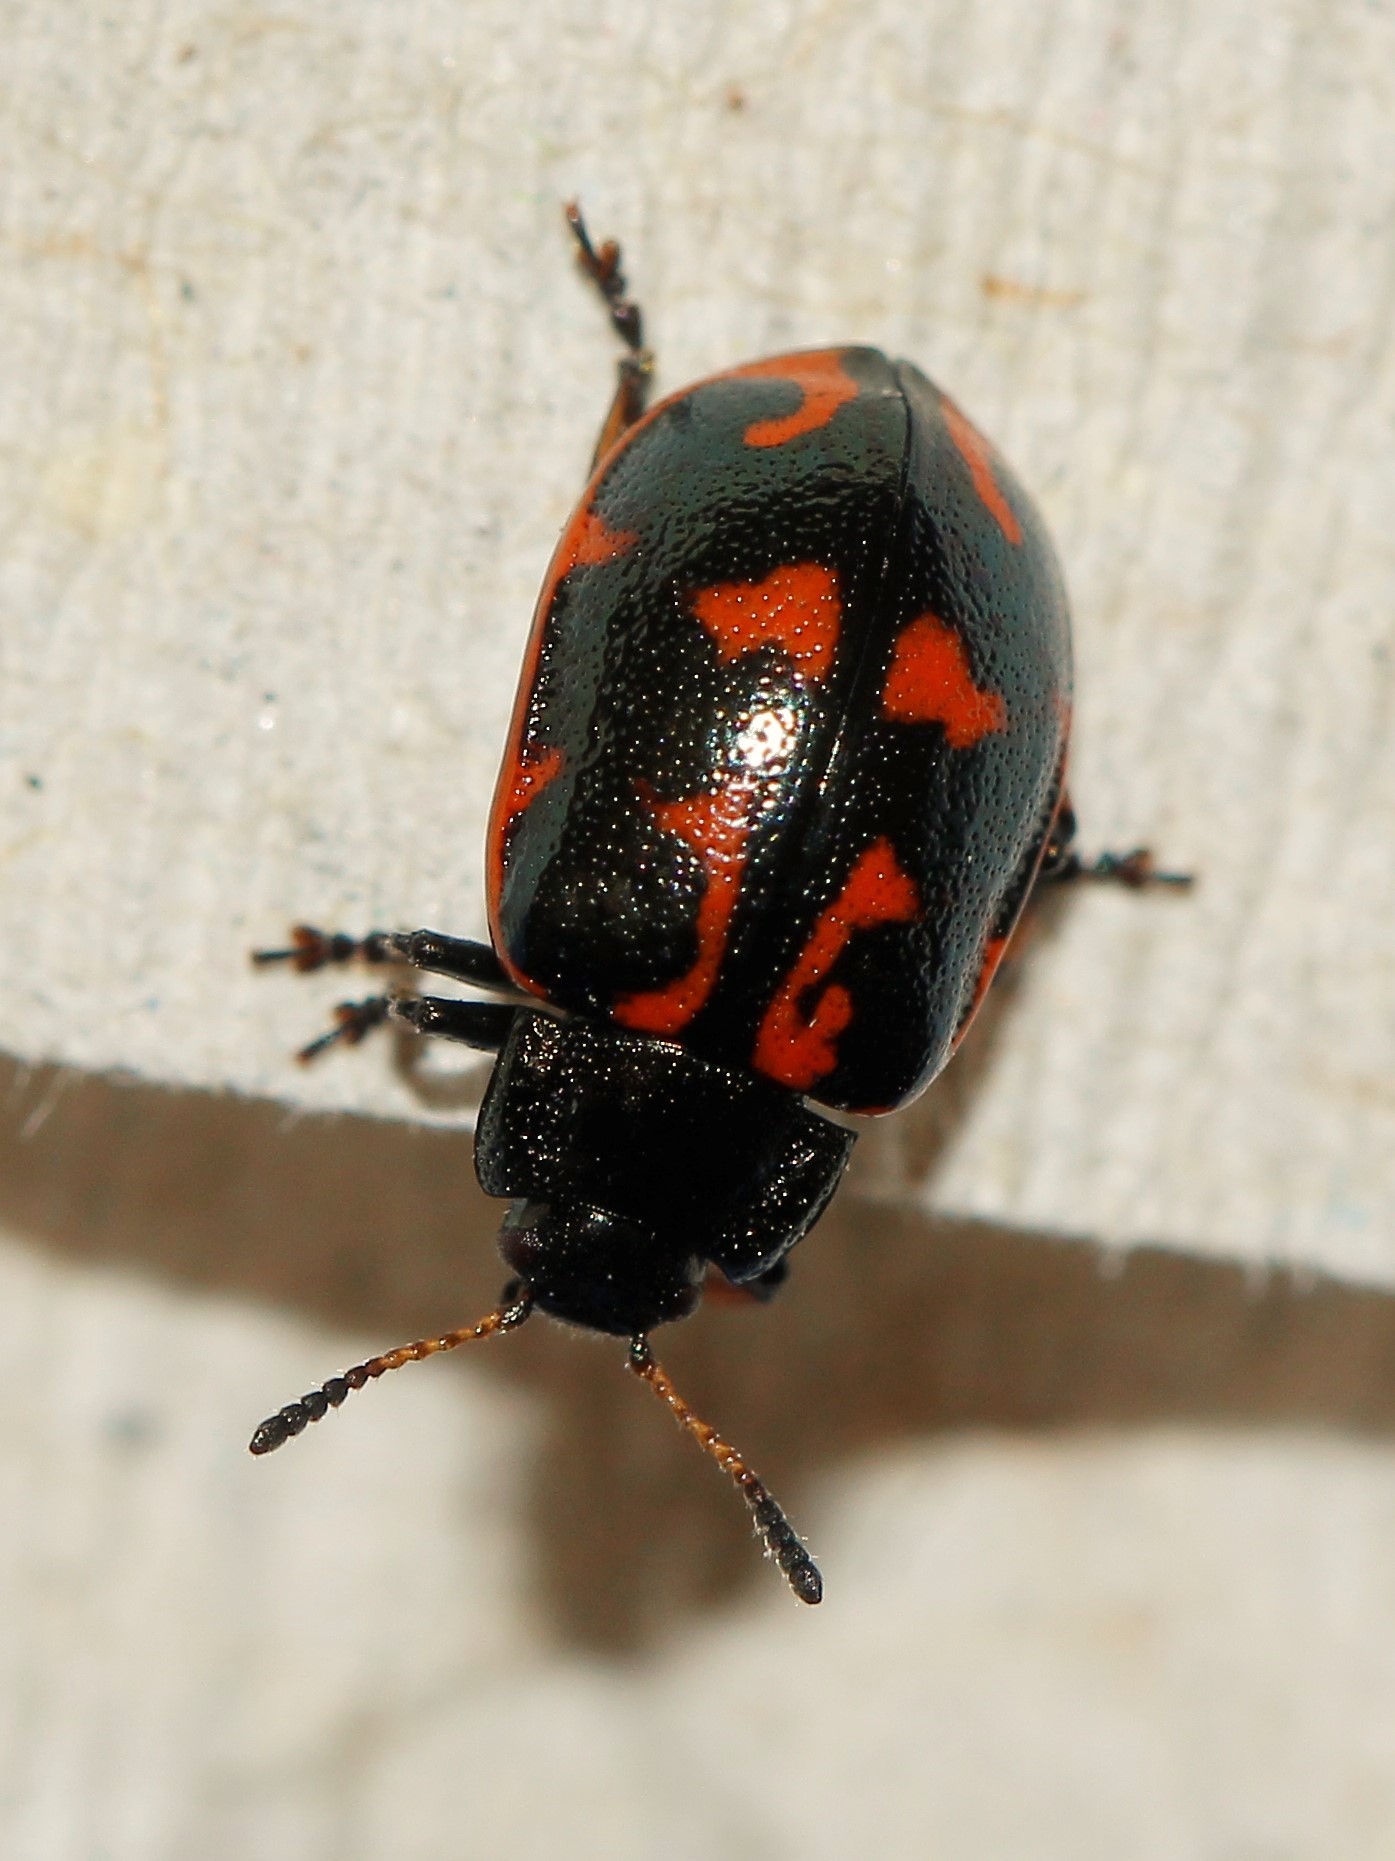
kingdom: Animalia
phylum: Arthropoda
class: Insecta
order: Coleoptera
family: Chrysomelidae
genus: Chrysomela
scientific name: Chrysomela lapponica
